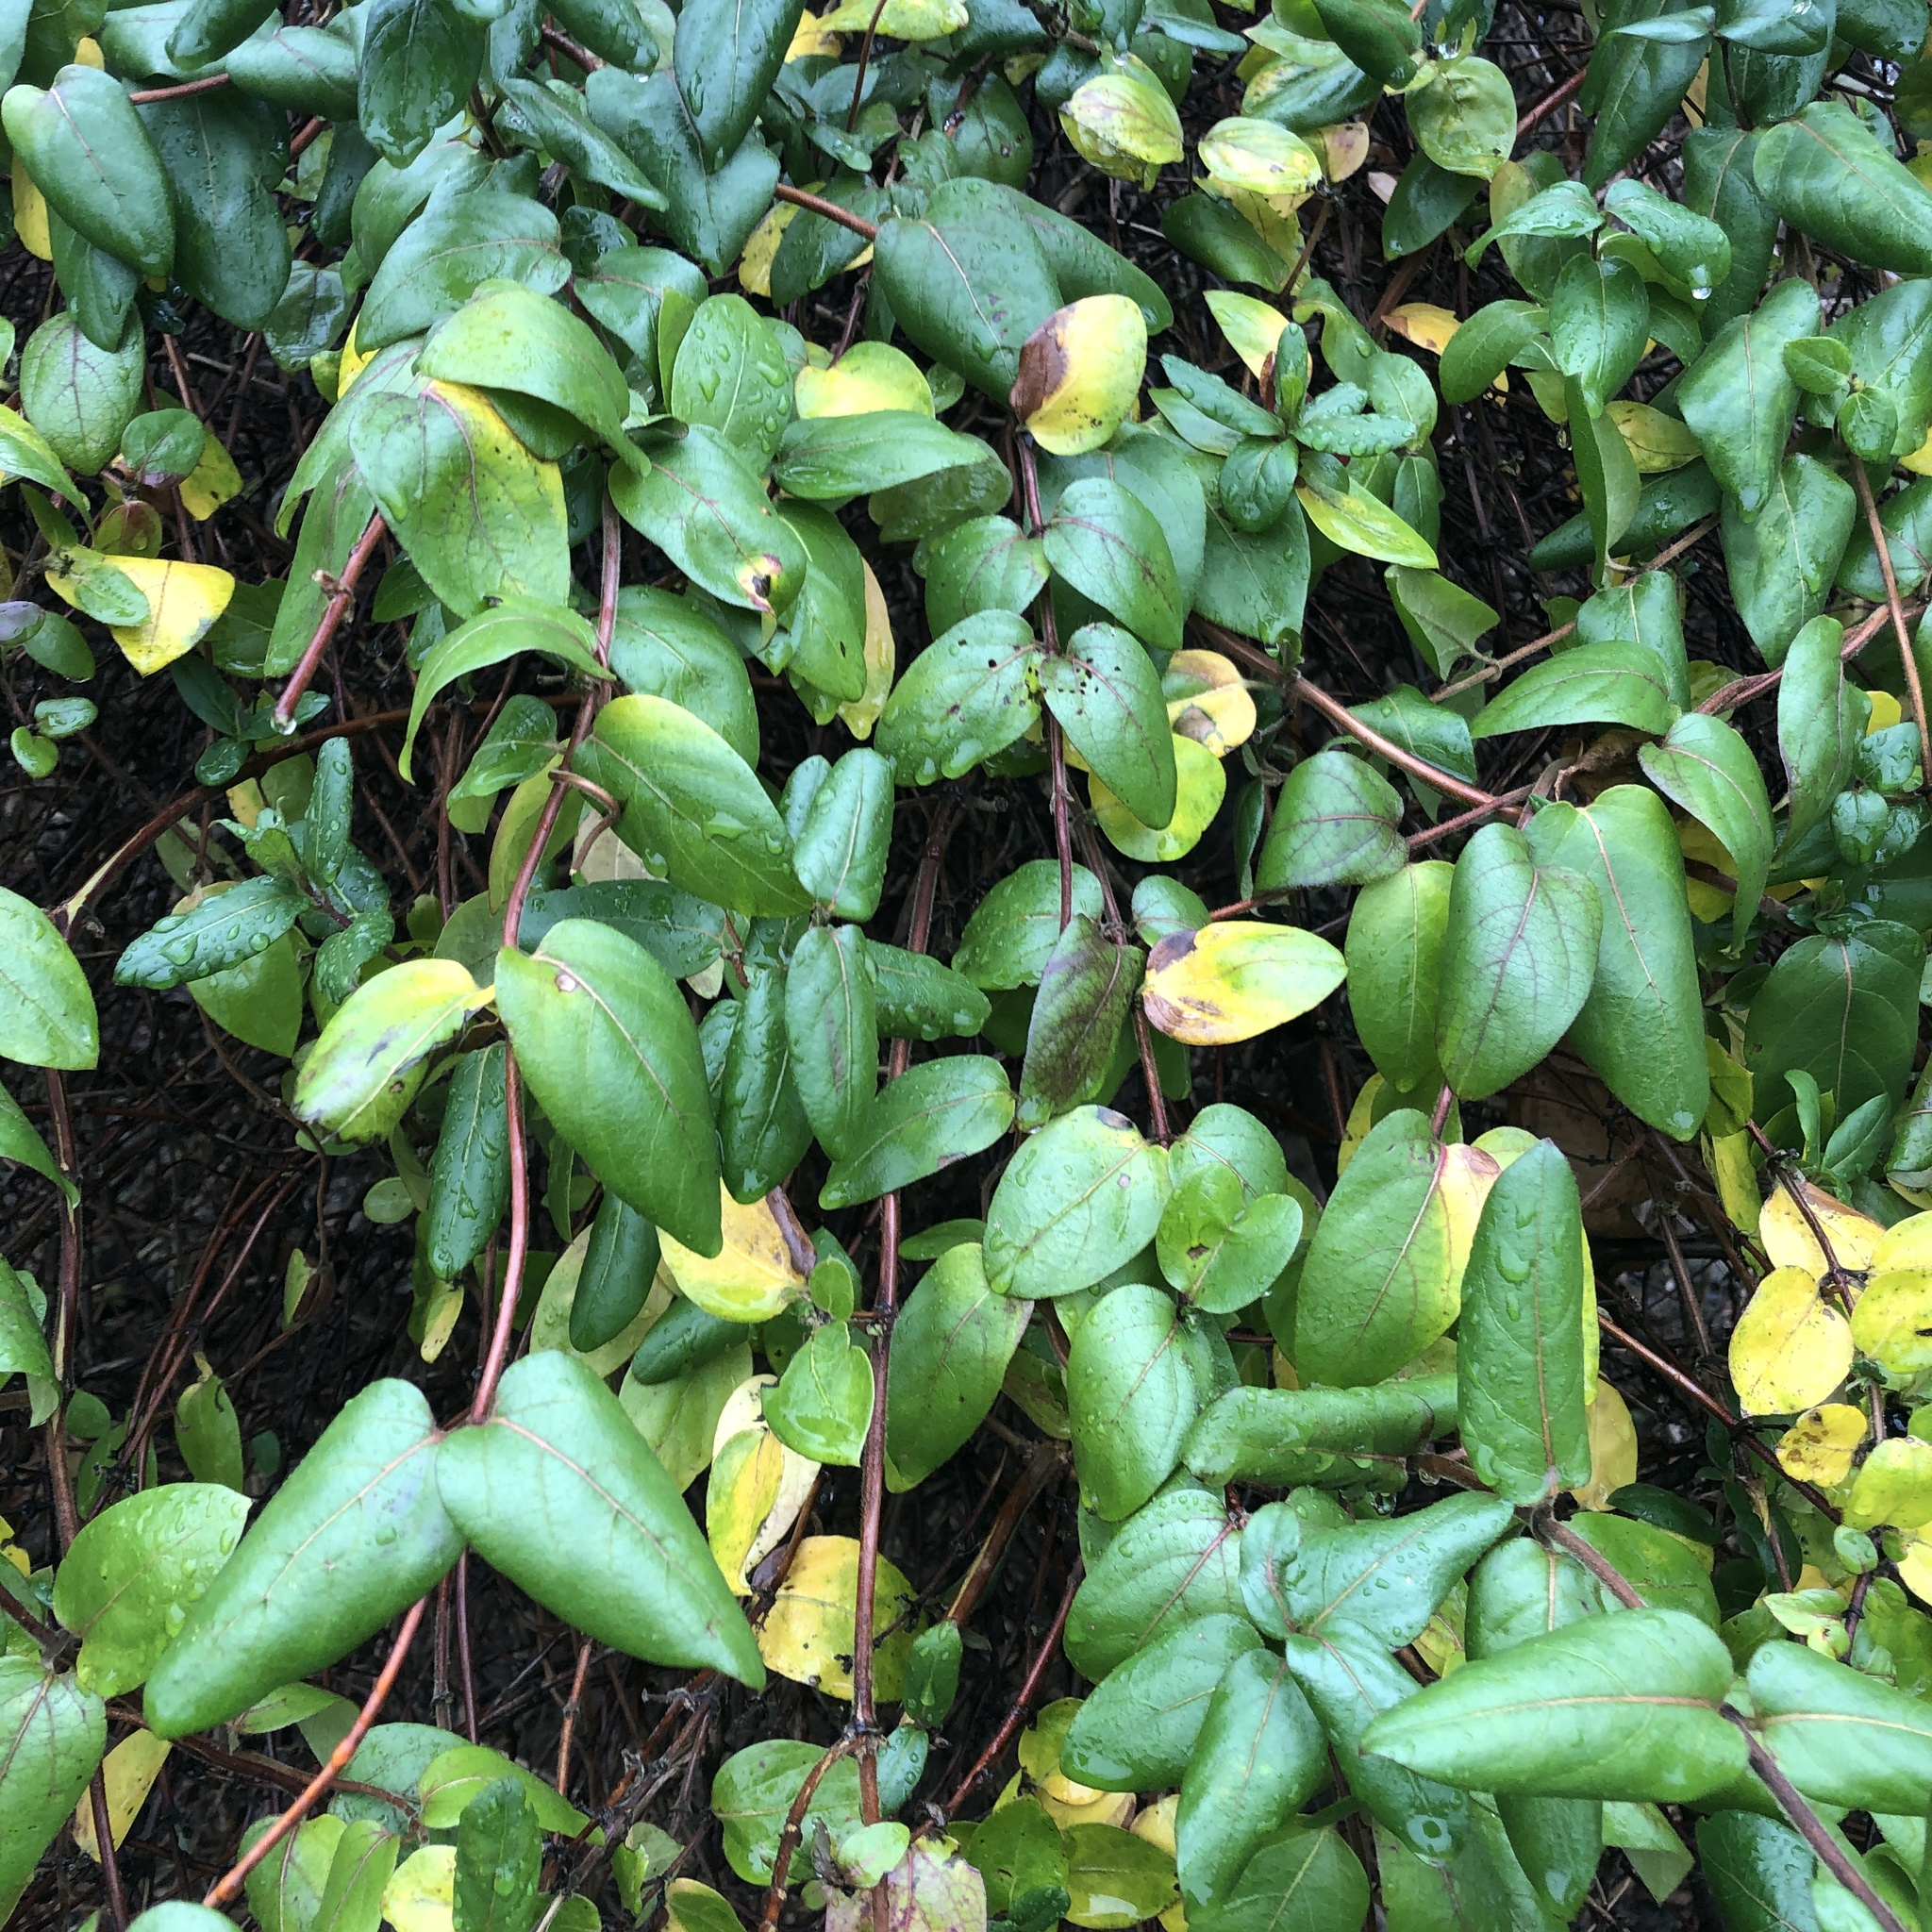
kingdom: Plantae
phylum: Tracheophyta
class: Magnoliopsida
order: Dipsacales
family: Caprifoliaceae
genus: Lonicera
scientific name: Lonicera japonica
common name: Japanese honeysuckle
